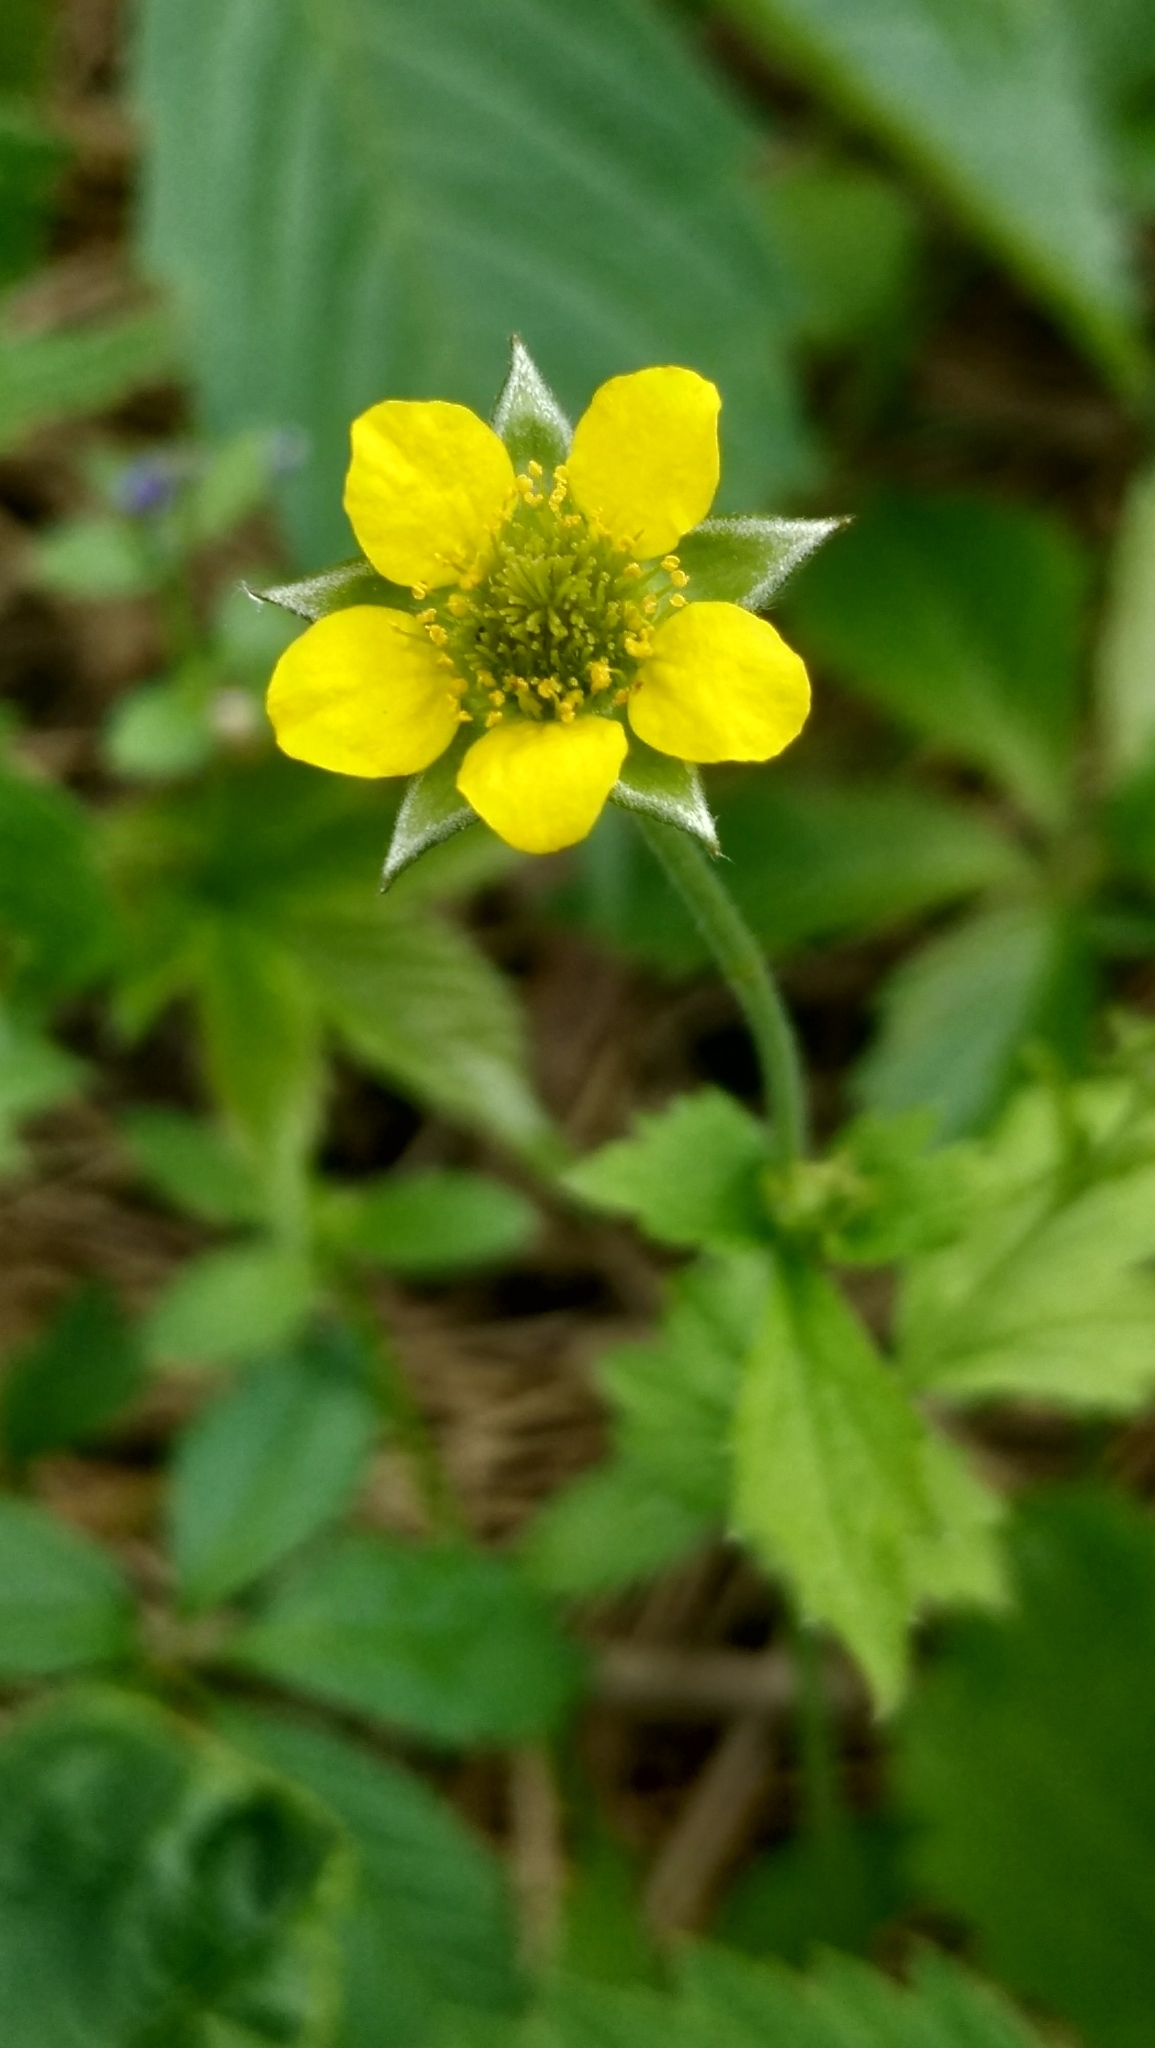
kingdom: Plantae
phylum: Tracheophyta
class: Magnoliopsida
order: Rosales
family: Rosaceae
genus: Geum
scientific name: Geum urbanum
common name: Wood avens
